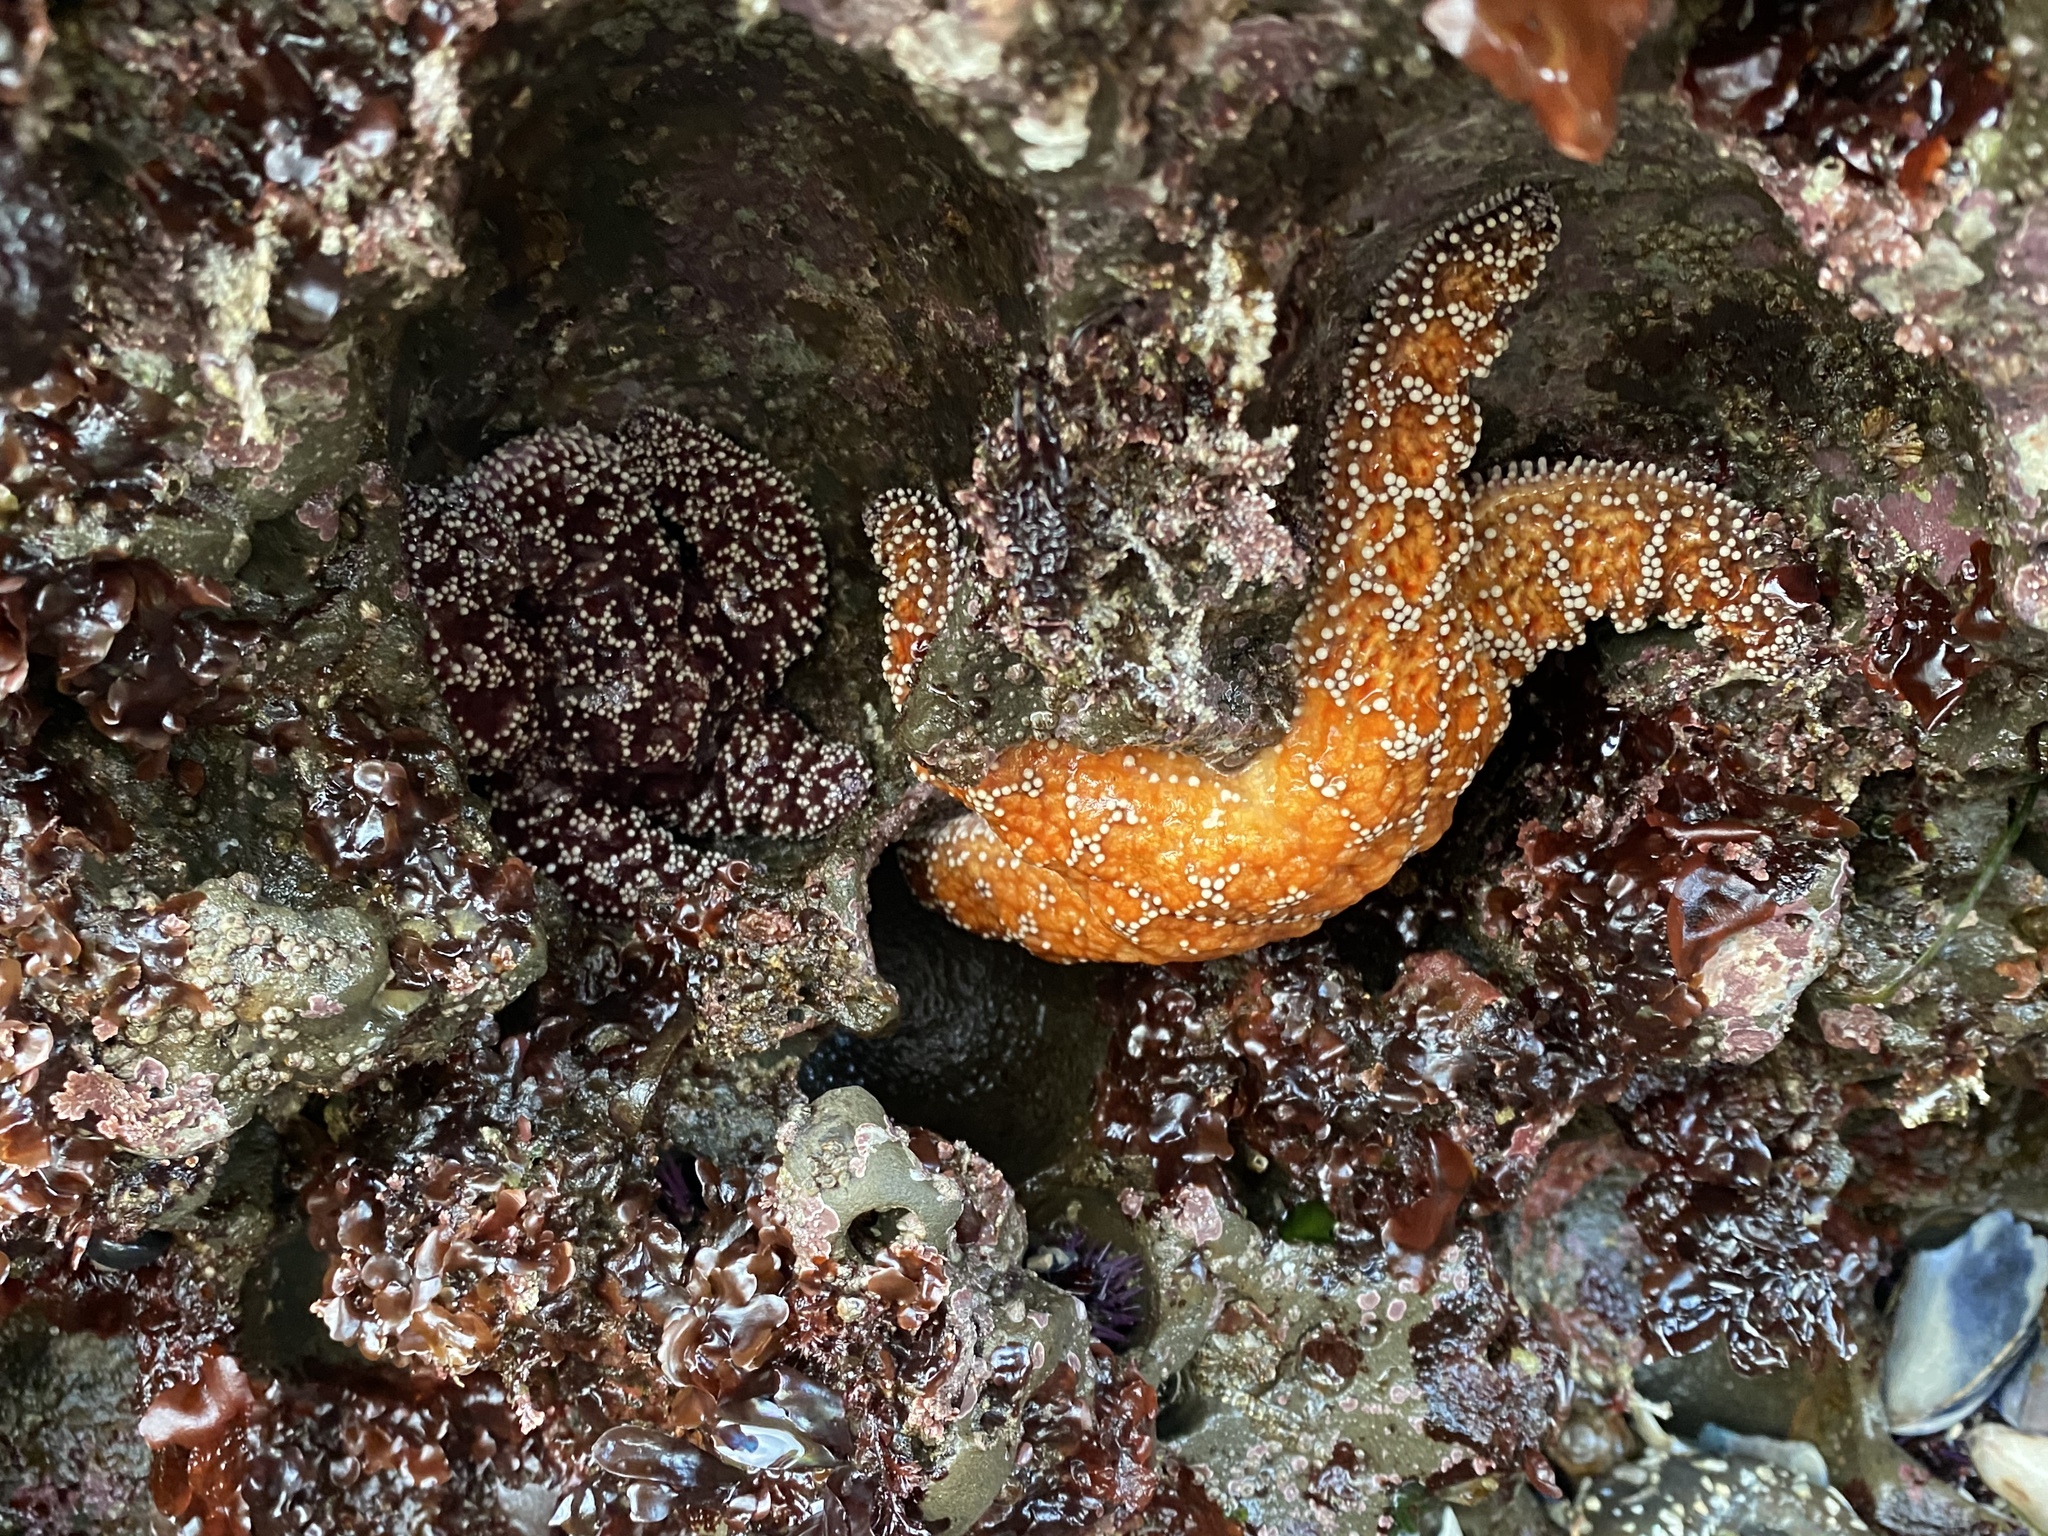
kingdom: Animalia
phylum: Echinodermata
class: Asteroidea
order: Forcipulatida
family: Asteriidae
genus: Pisaster
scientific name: Pisaster ochraceus
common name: Ochre stars
